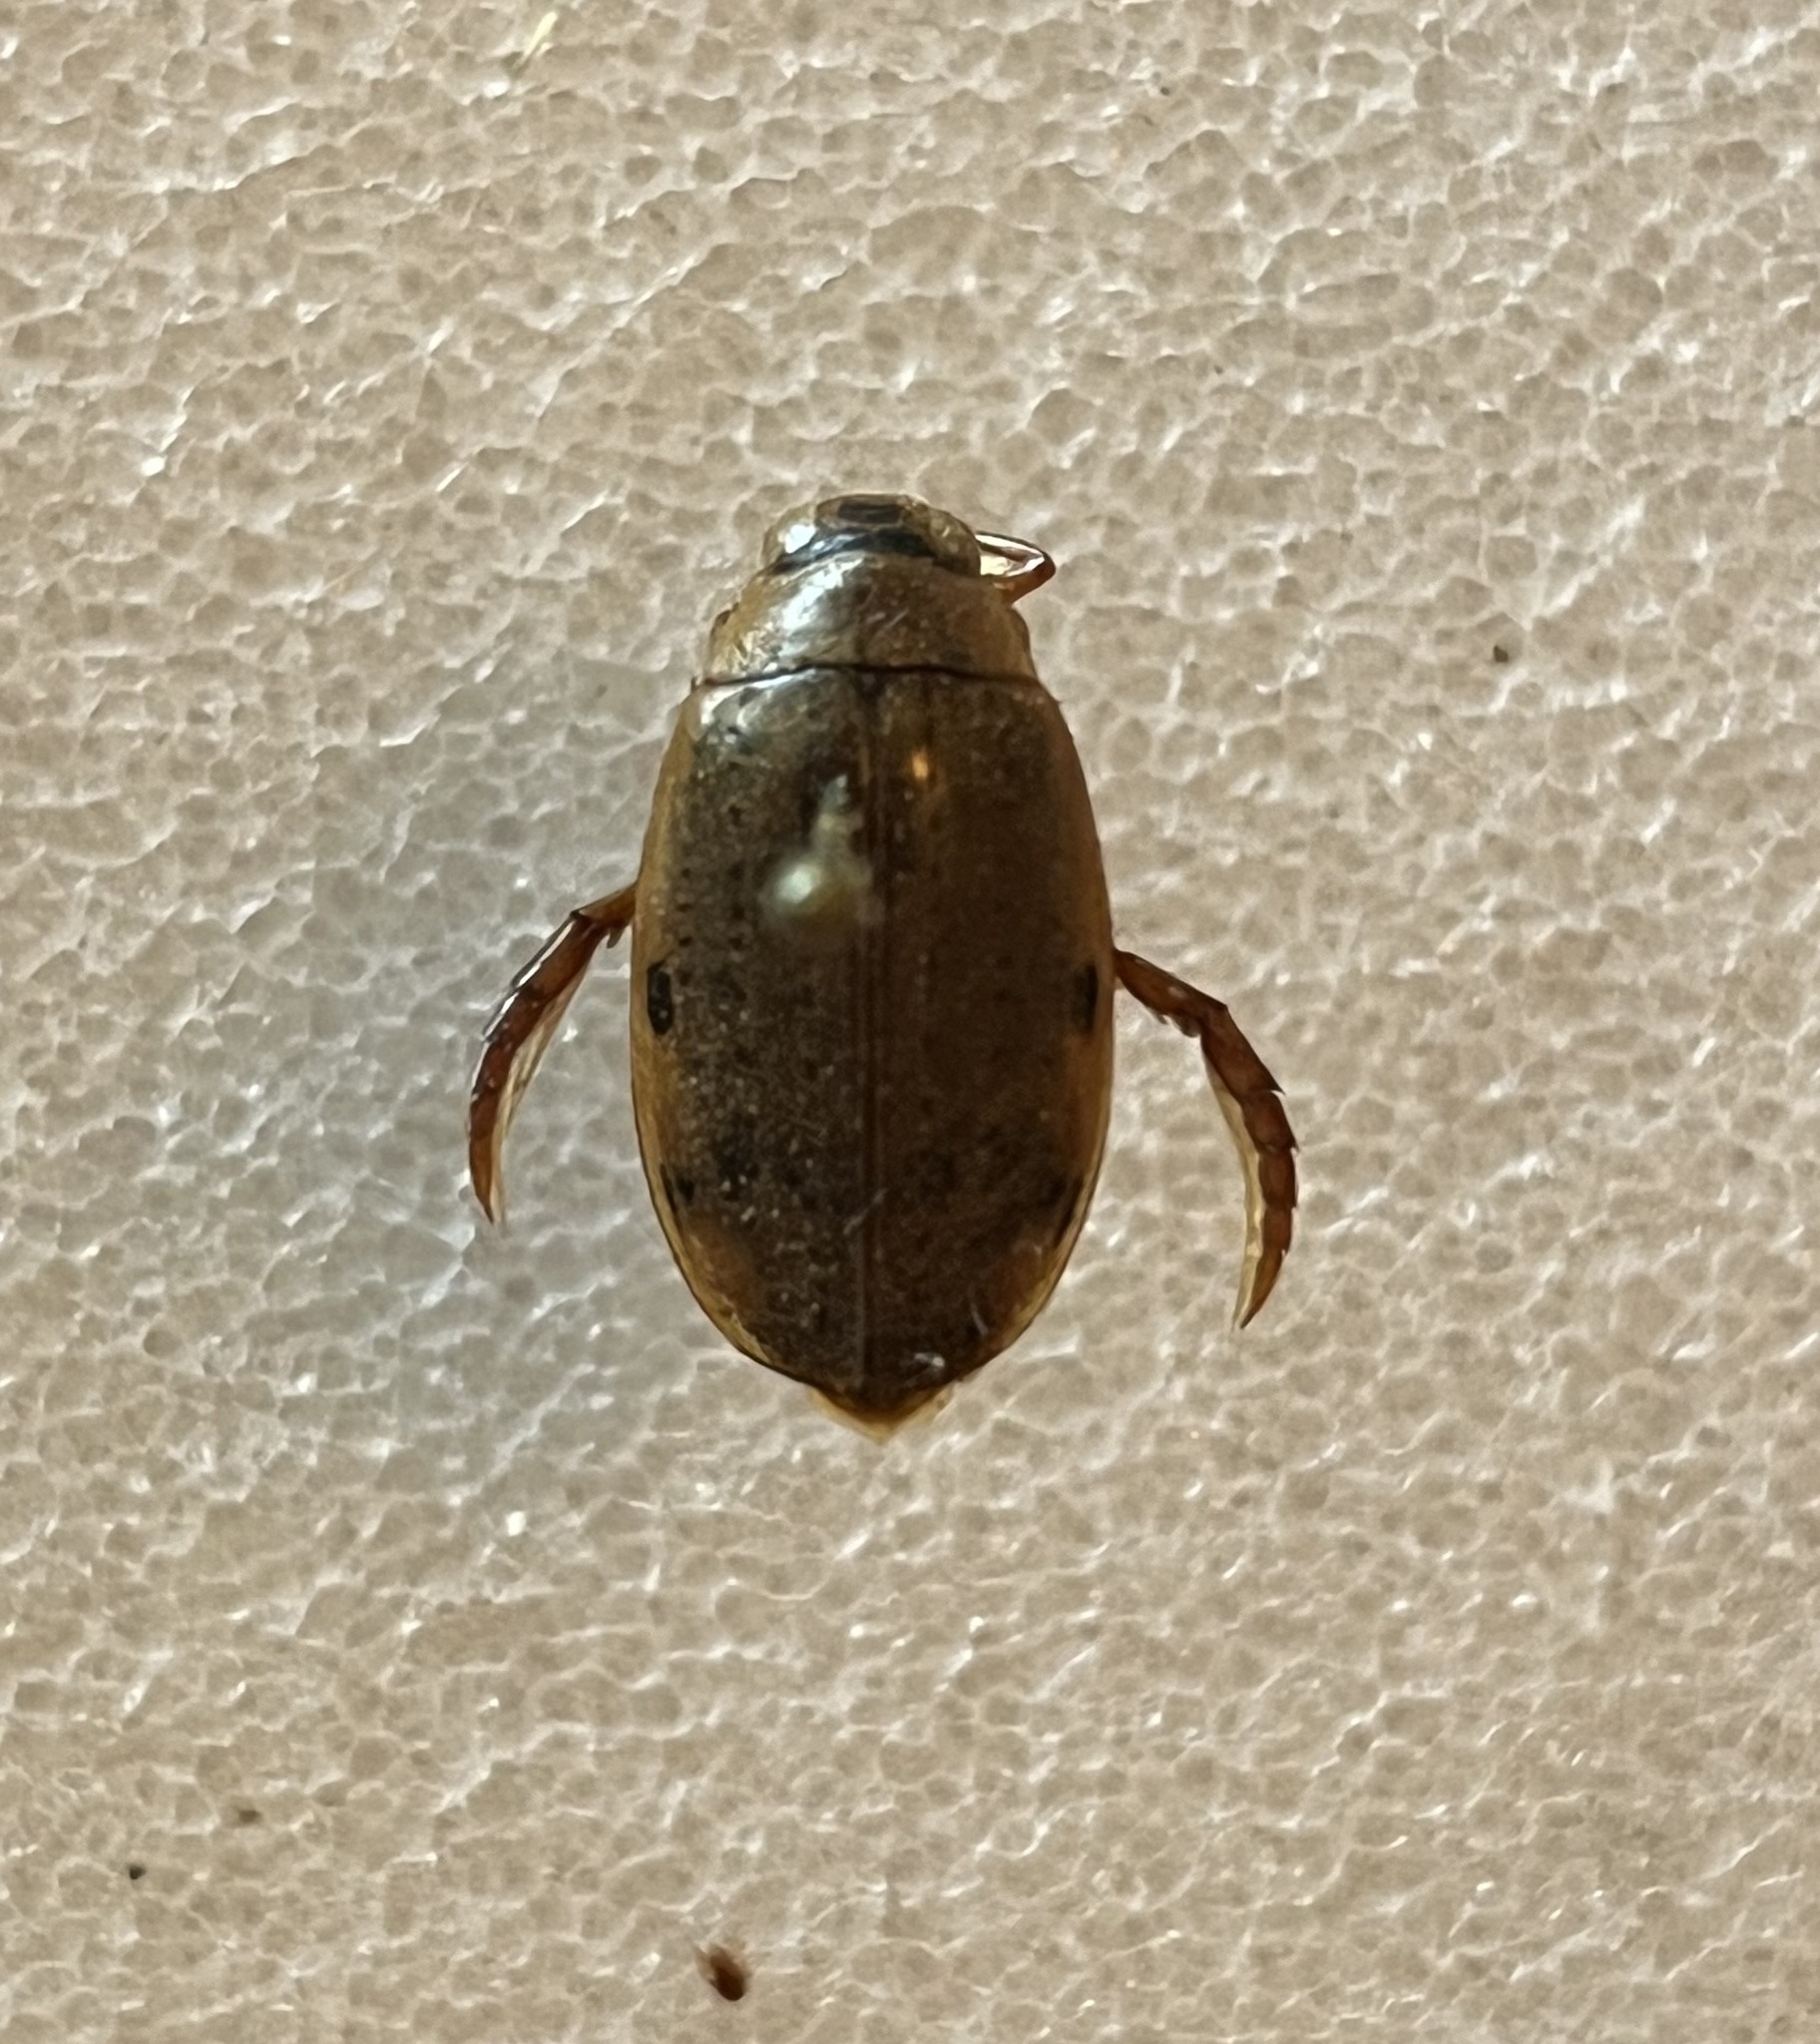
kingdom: Animalia
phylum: Arthropoda
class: Insecta
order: Coleoptera
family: Dytiscidae
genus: Eretes
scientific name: Eretes
